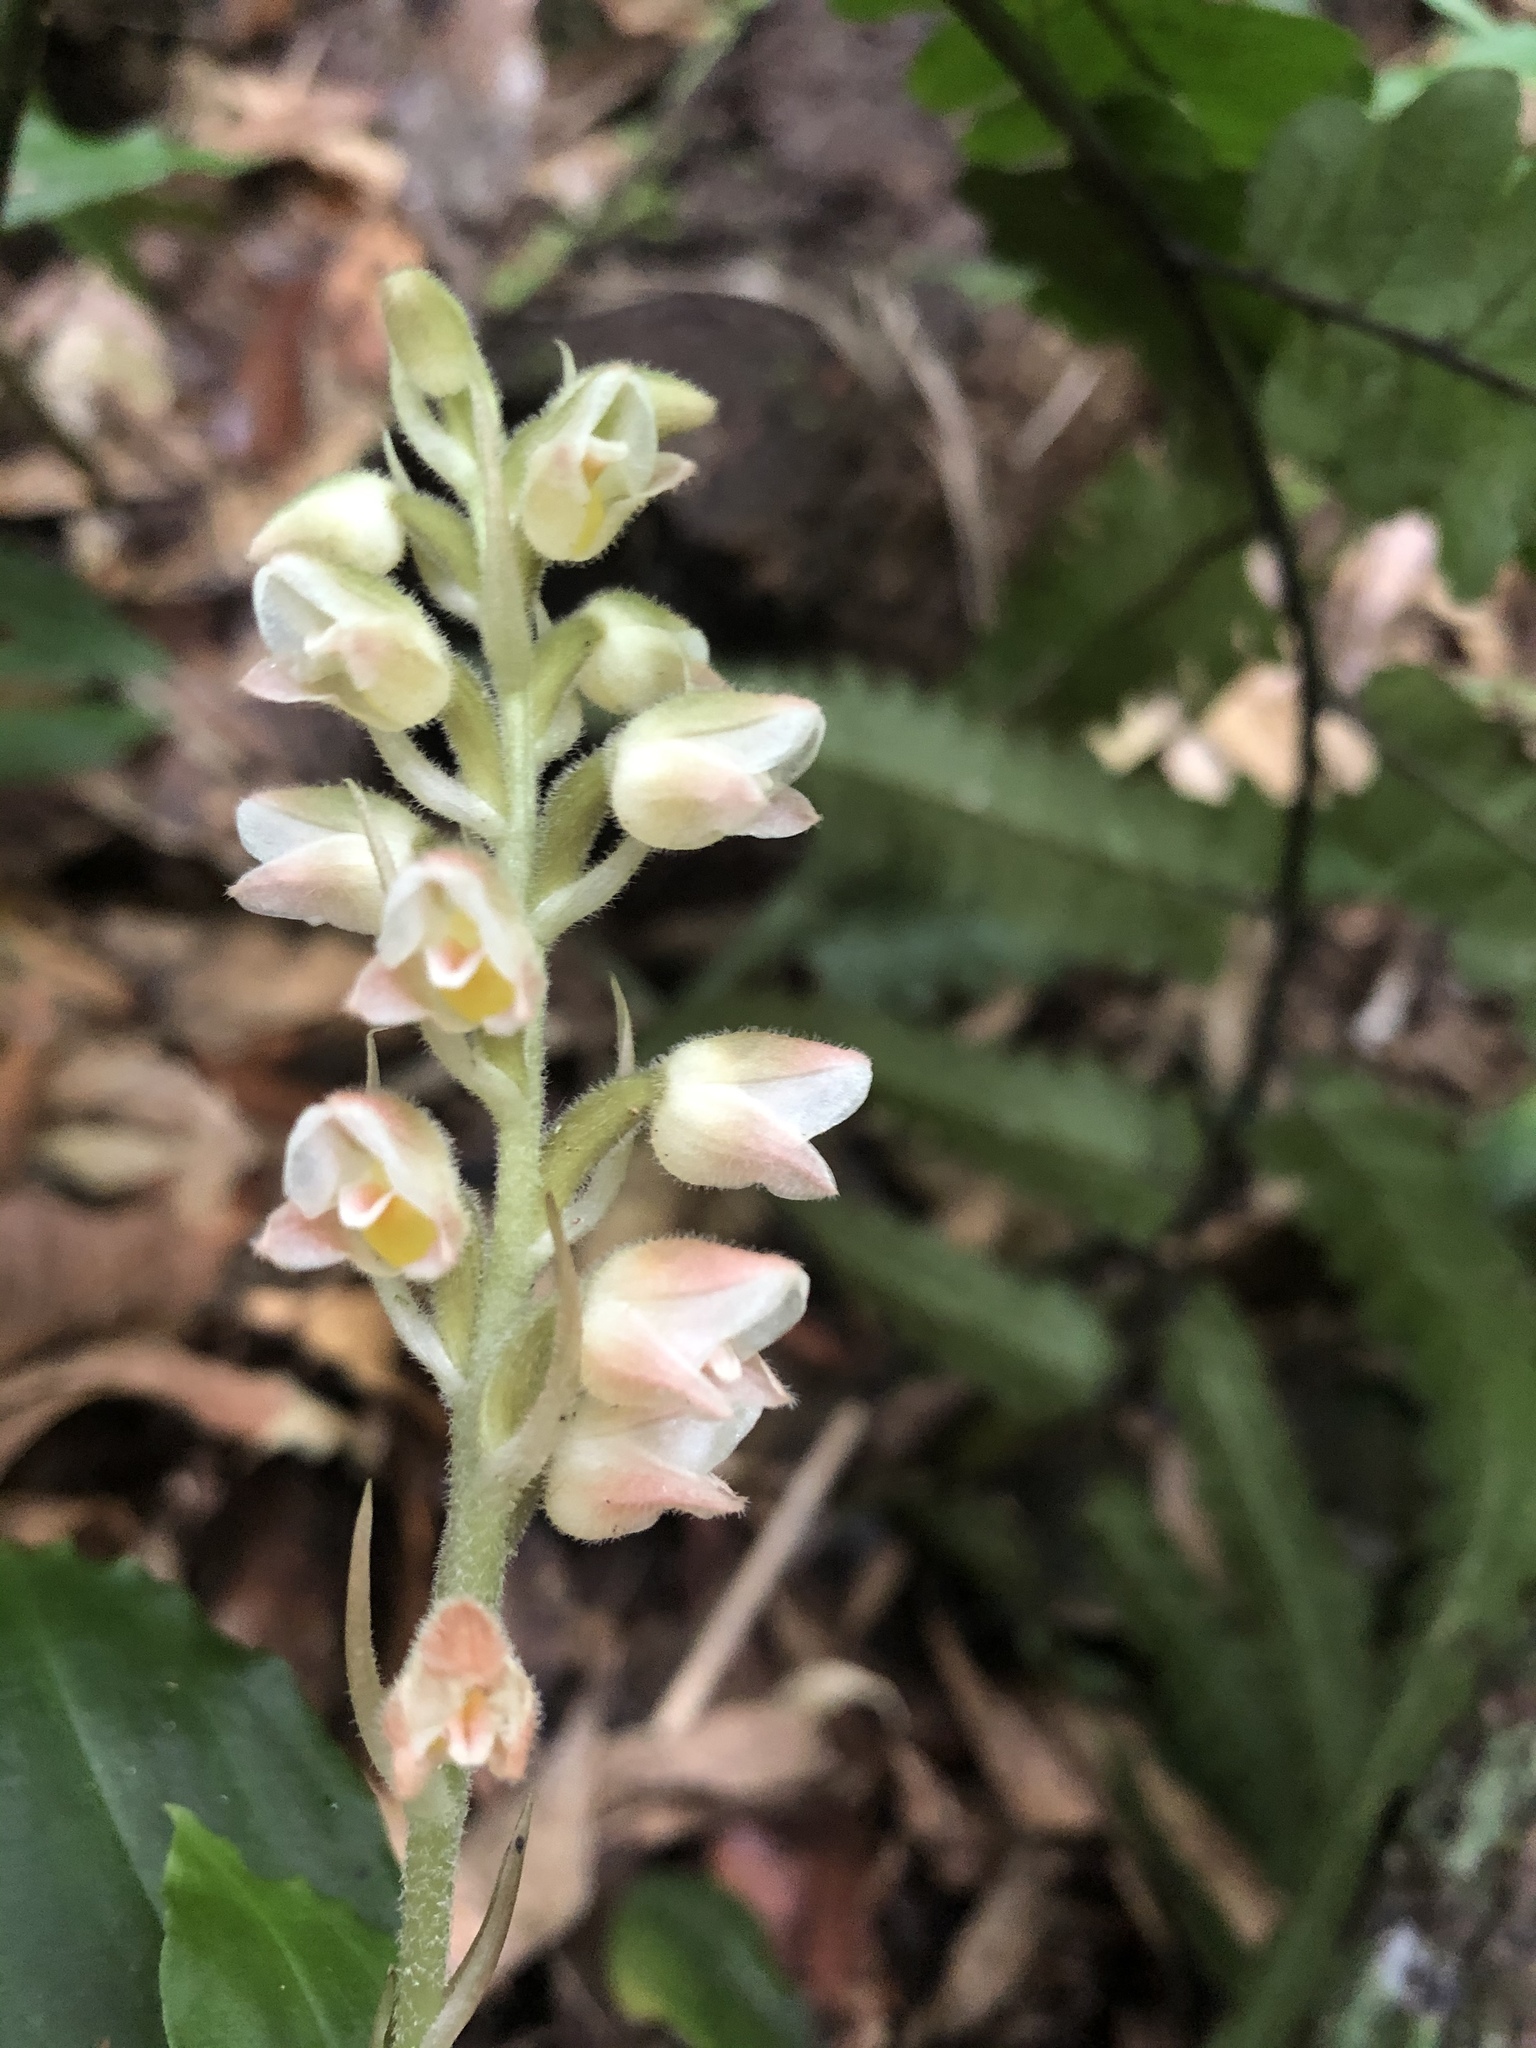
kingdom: Plantae
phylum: Tracheophyta
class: Liliopsida
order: Asparagales
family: Orchidaceae
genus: Goodyera
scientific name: Goodyera foliosa
